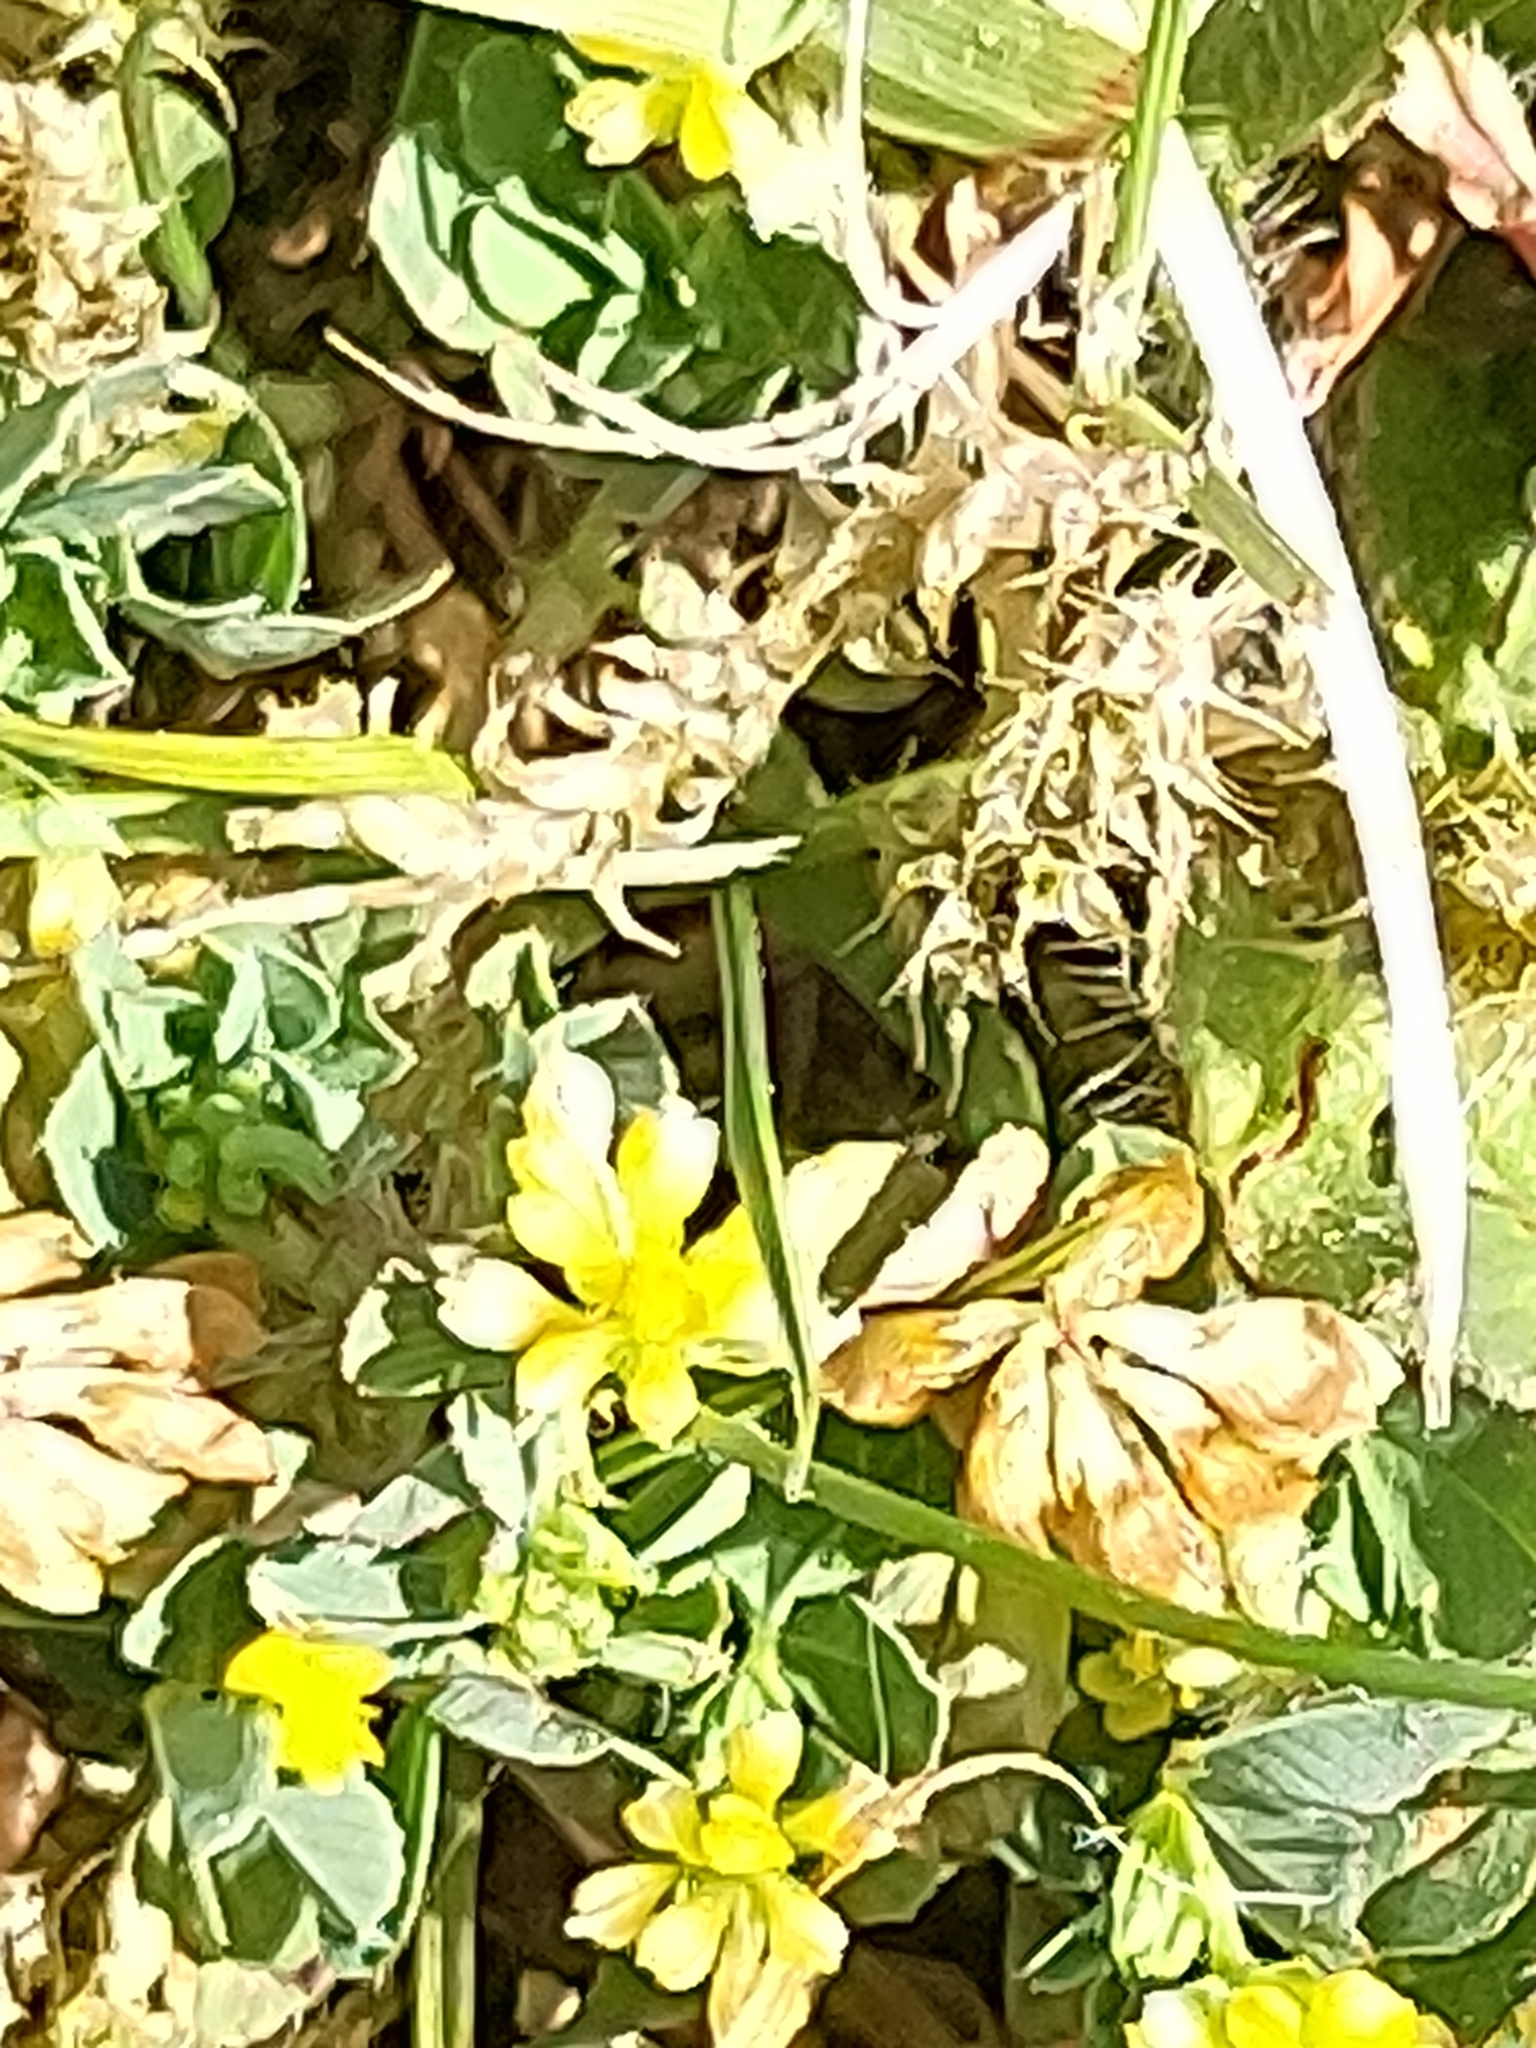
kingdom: Plantae
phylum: Tracheophyta
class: Magnoliopsida
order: Fabales
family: Fabaceae
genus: Trifolium
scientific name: Trifolium dubium
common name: Suckling clover
